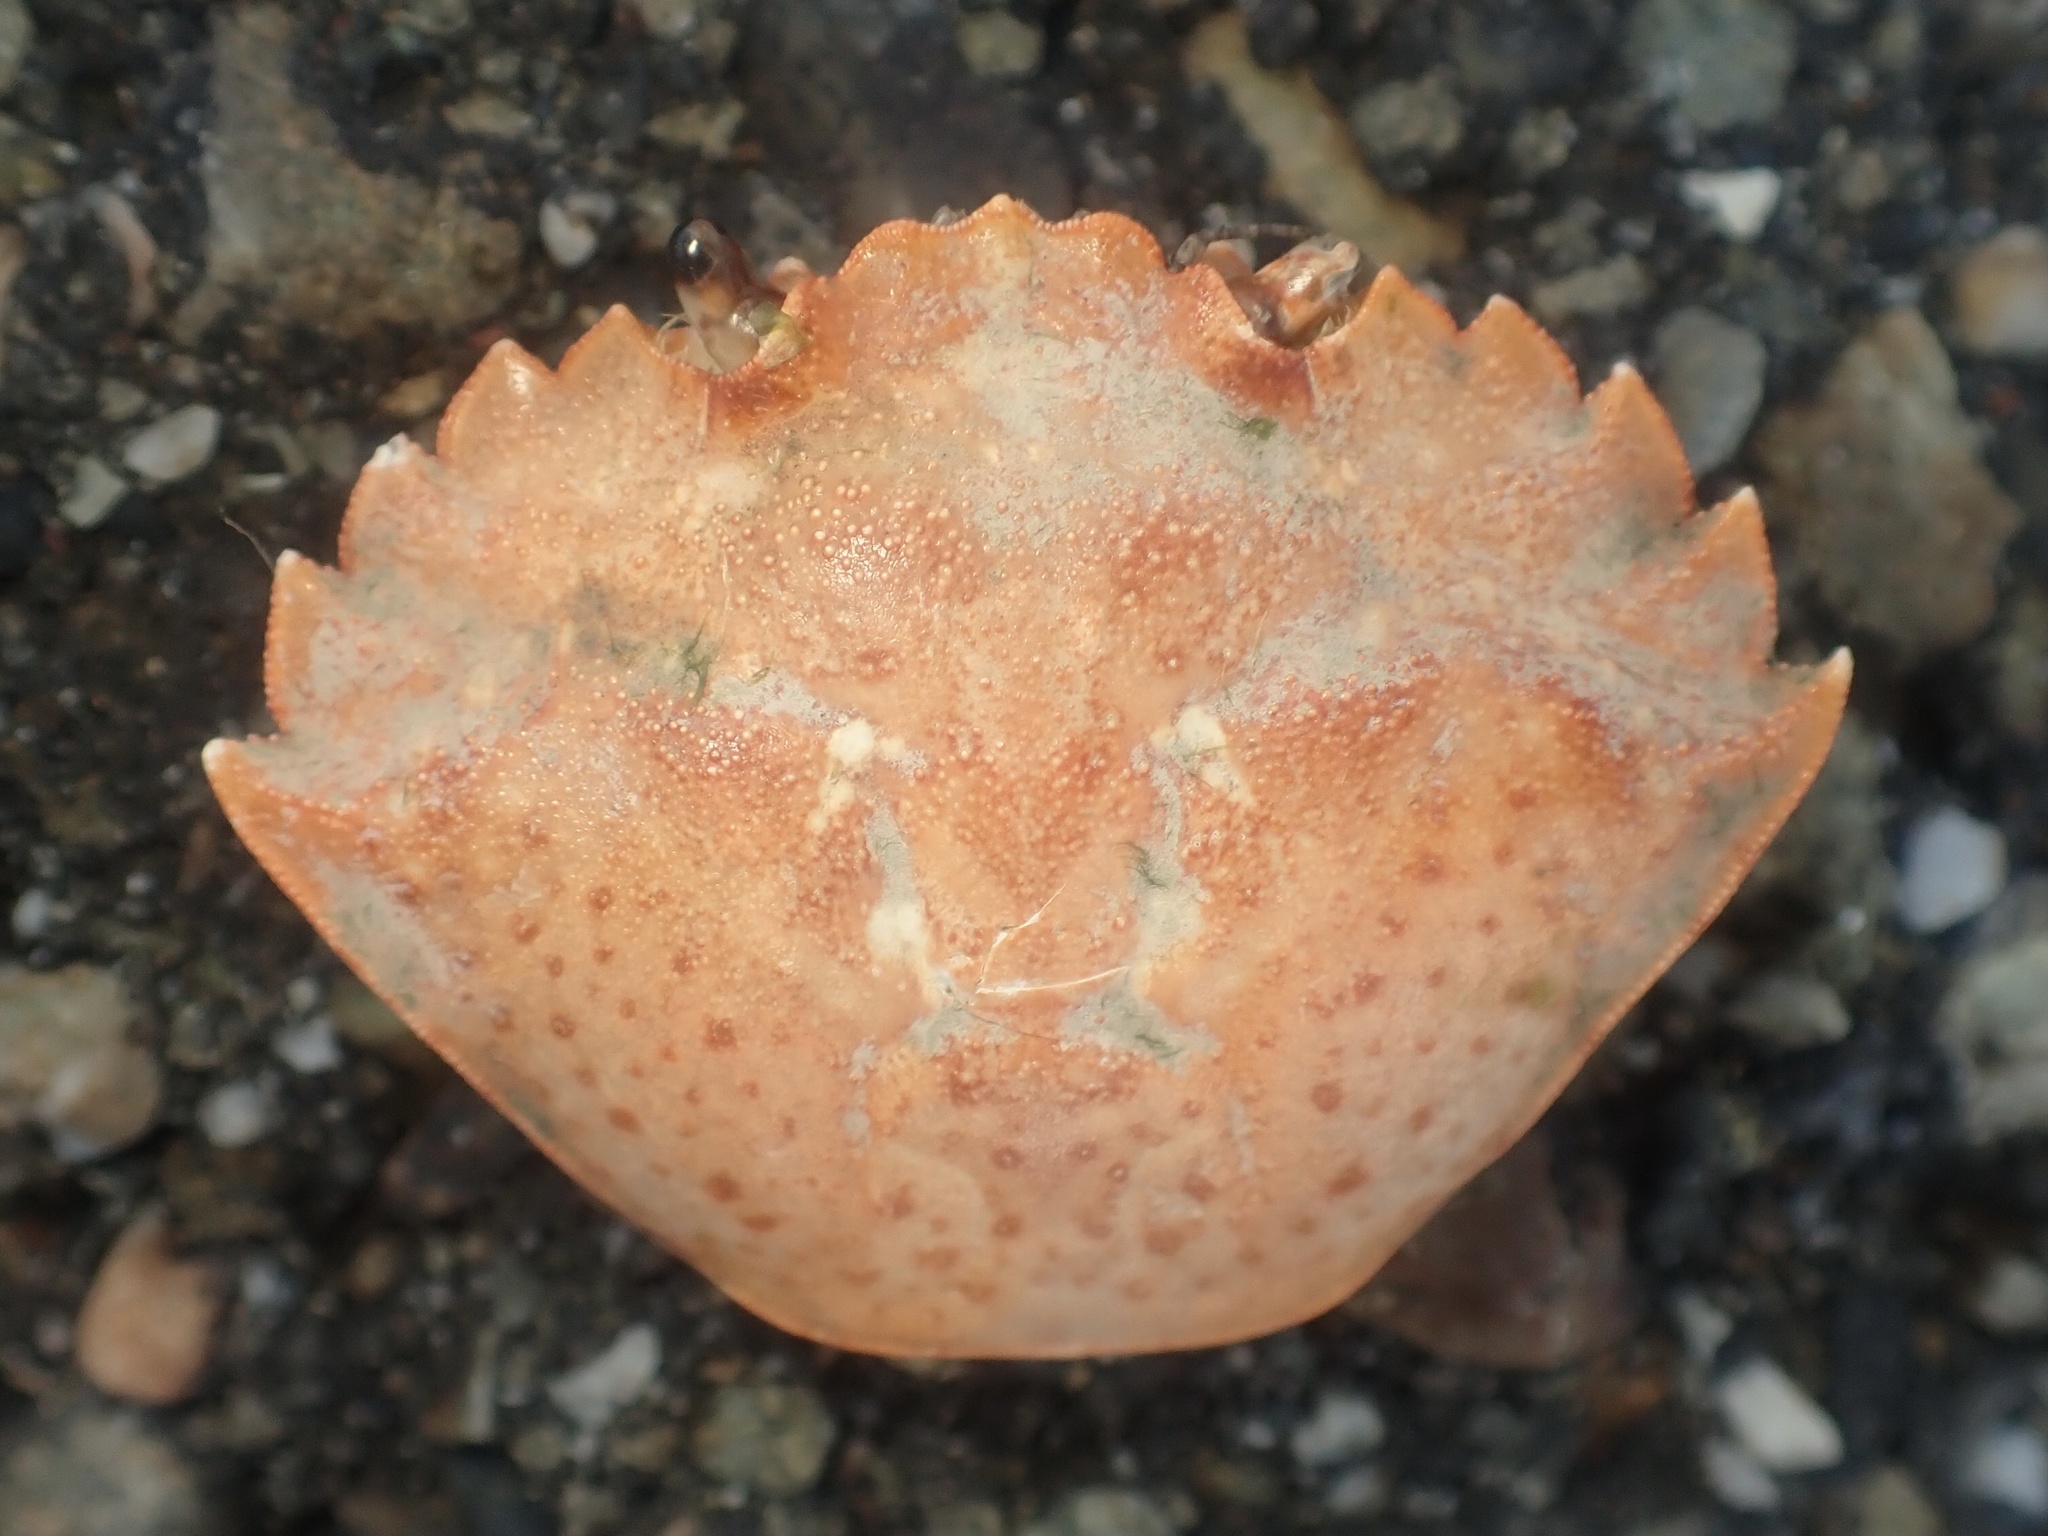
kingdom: Animalia
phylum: Arthropoda
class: Malacostraca
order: Decapoda
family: Carcinidae
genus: Carcinus
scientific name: Carcinus maenas
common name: European green crab
